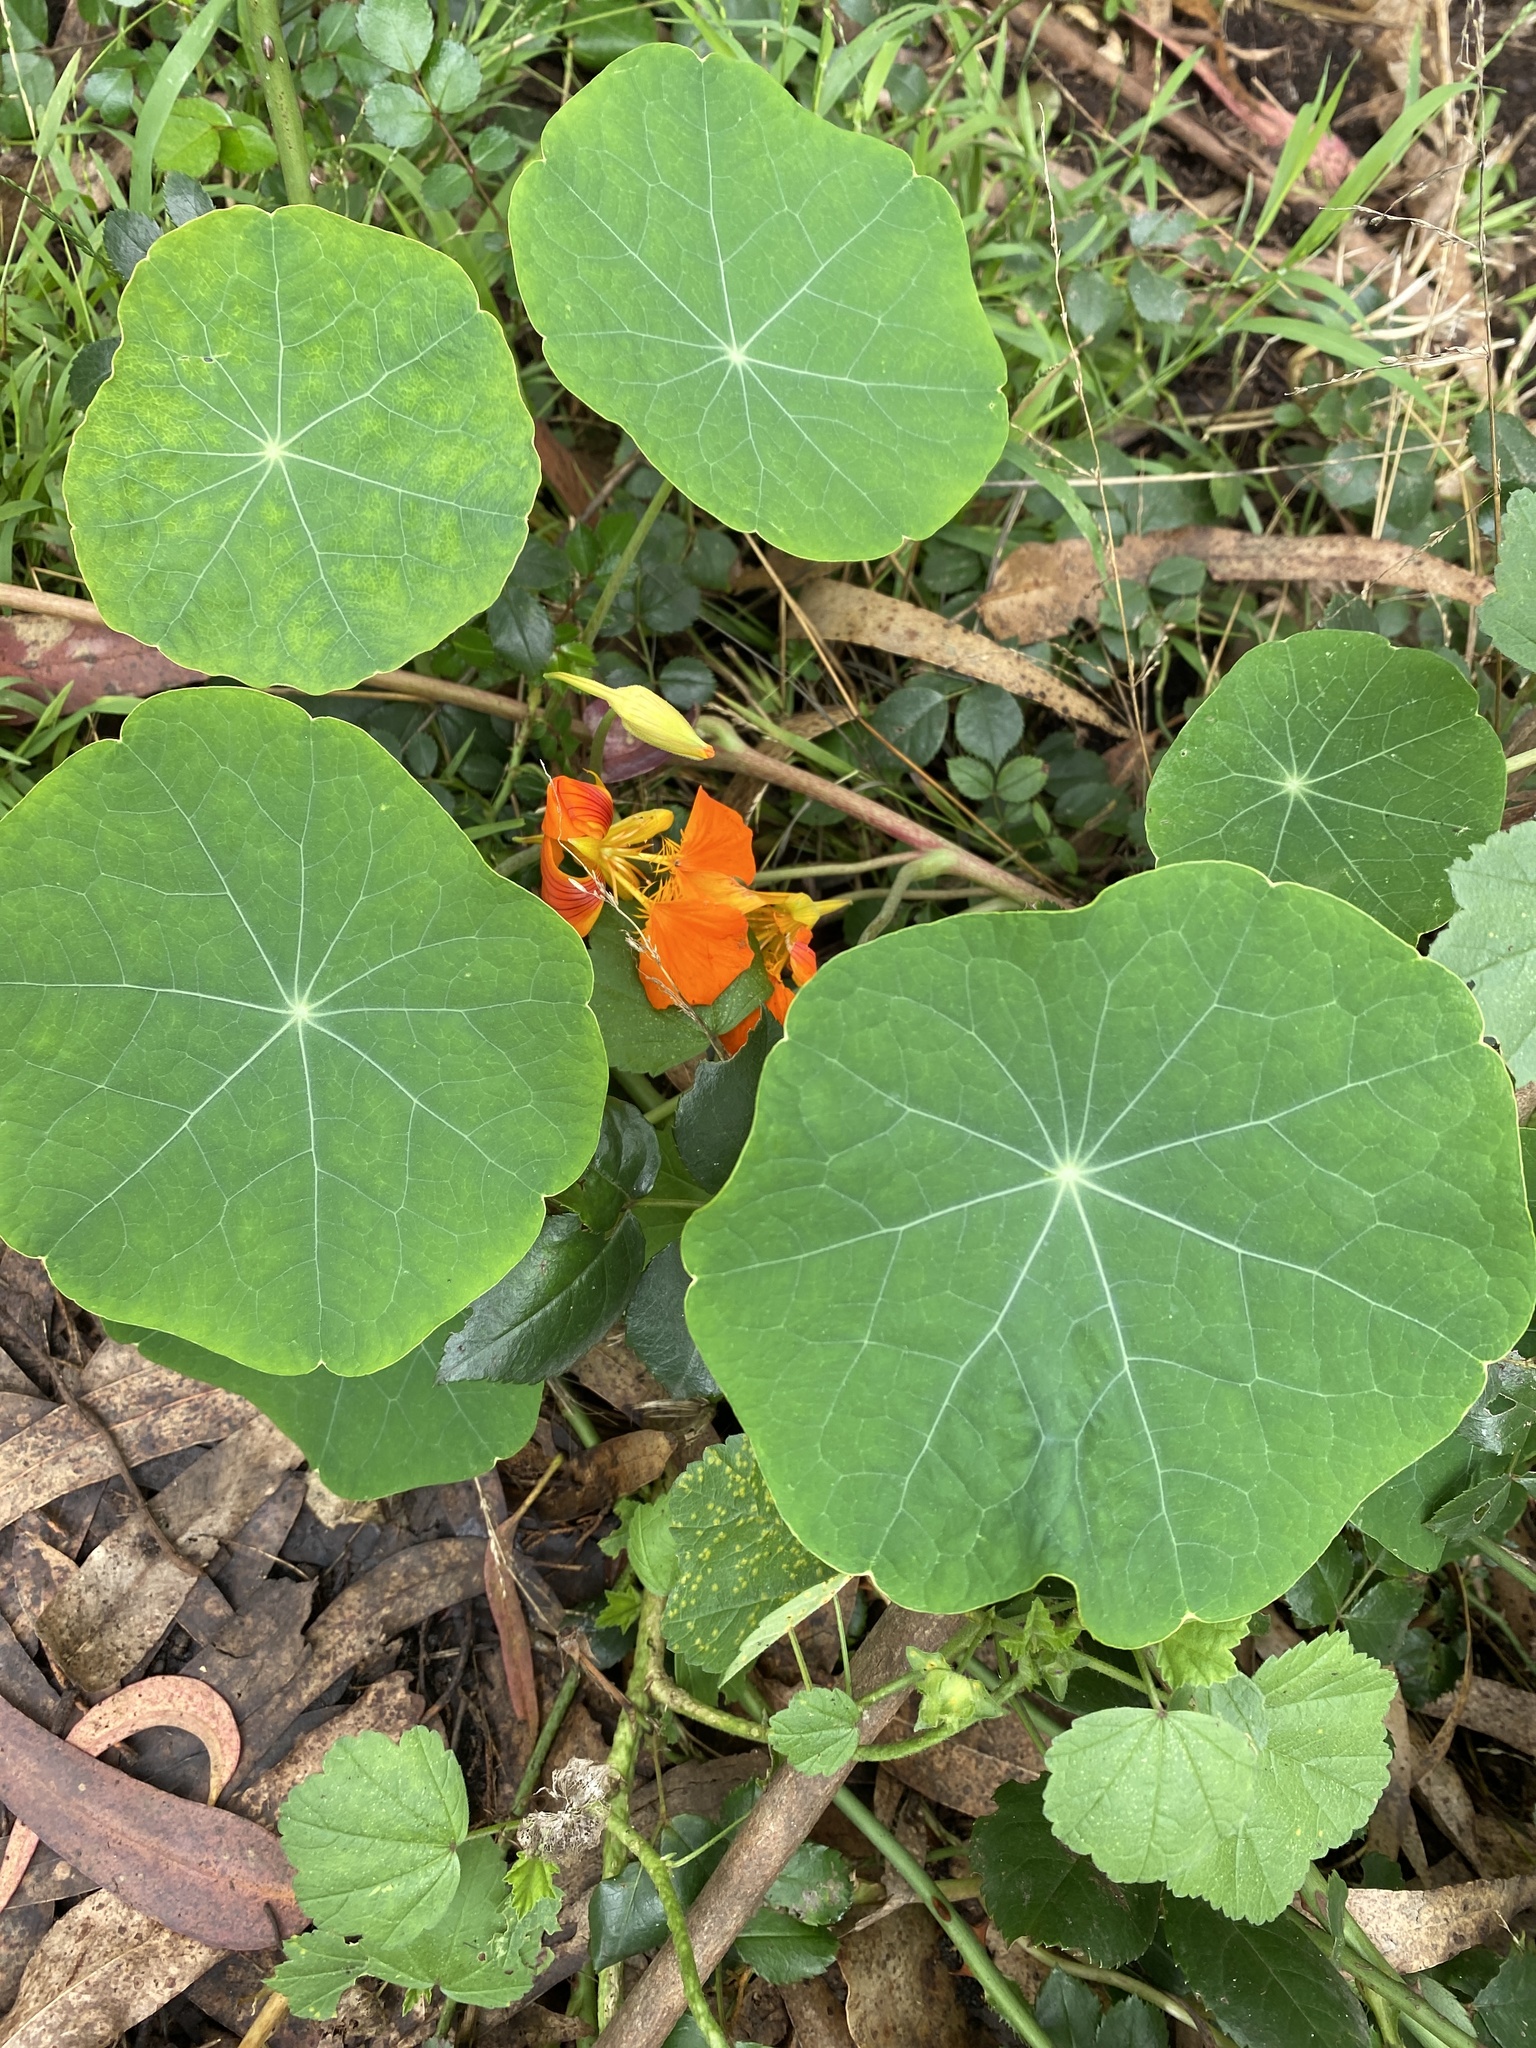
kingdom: Plantae
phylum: Tracheophyta
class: Magnoliopsida
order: Brassicales
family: Tropaeolaceae
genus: Tropaeolum
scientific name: Tropaeolum majus
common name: Nasturtium
